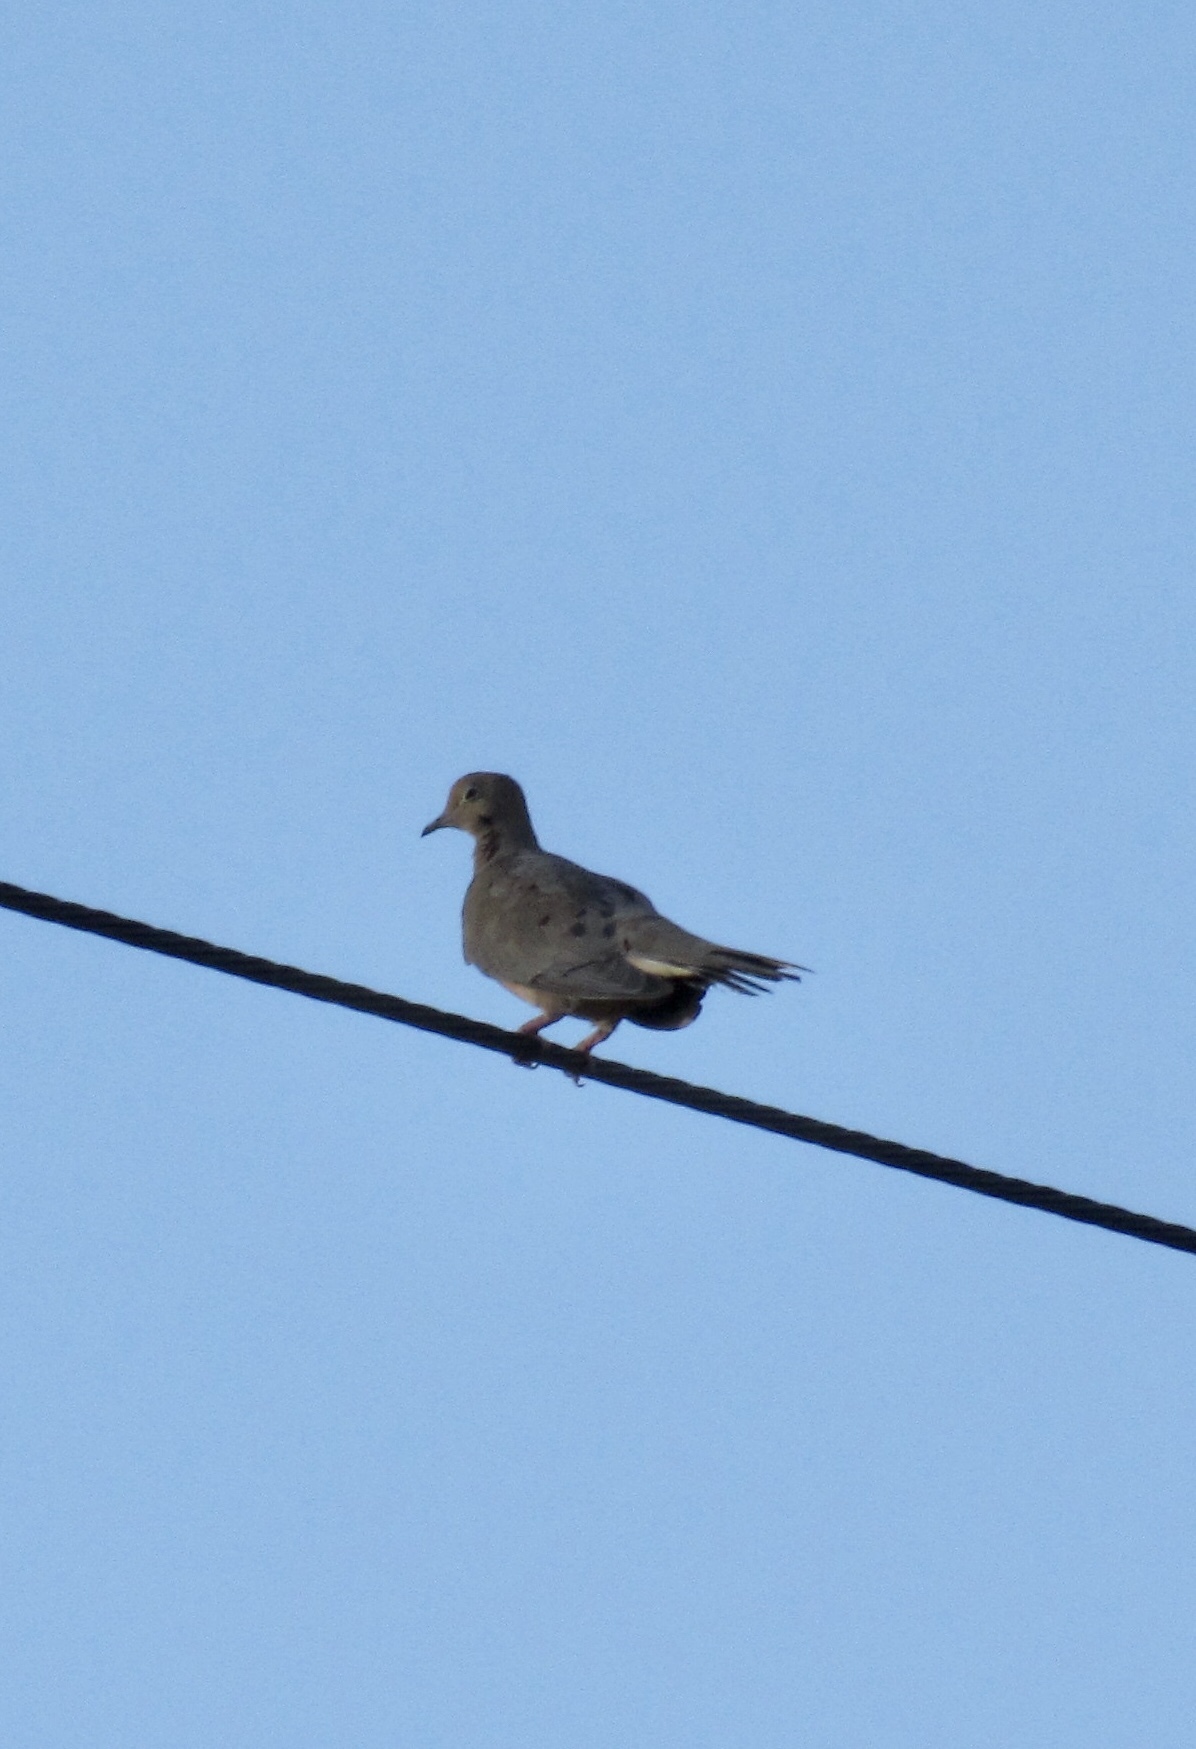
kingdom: Animalia
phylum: Chordata
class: Aves
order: Columbiformes
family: Columbidae
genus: Zenaida
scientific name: Zenaida macroura
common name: Mourning dove
